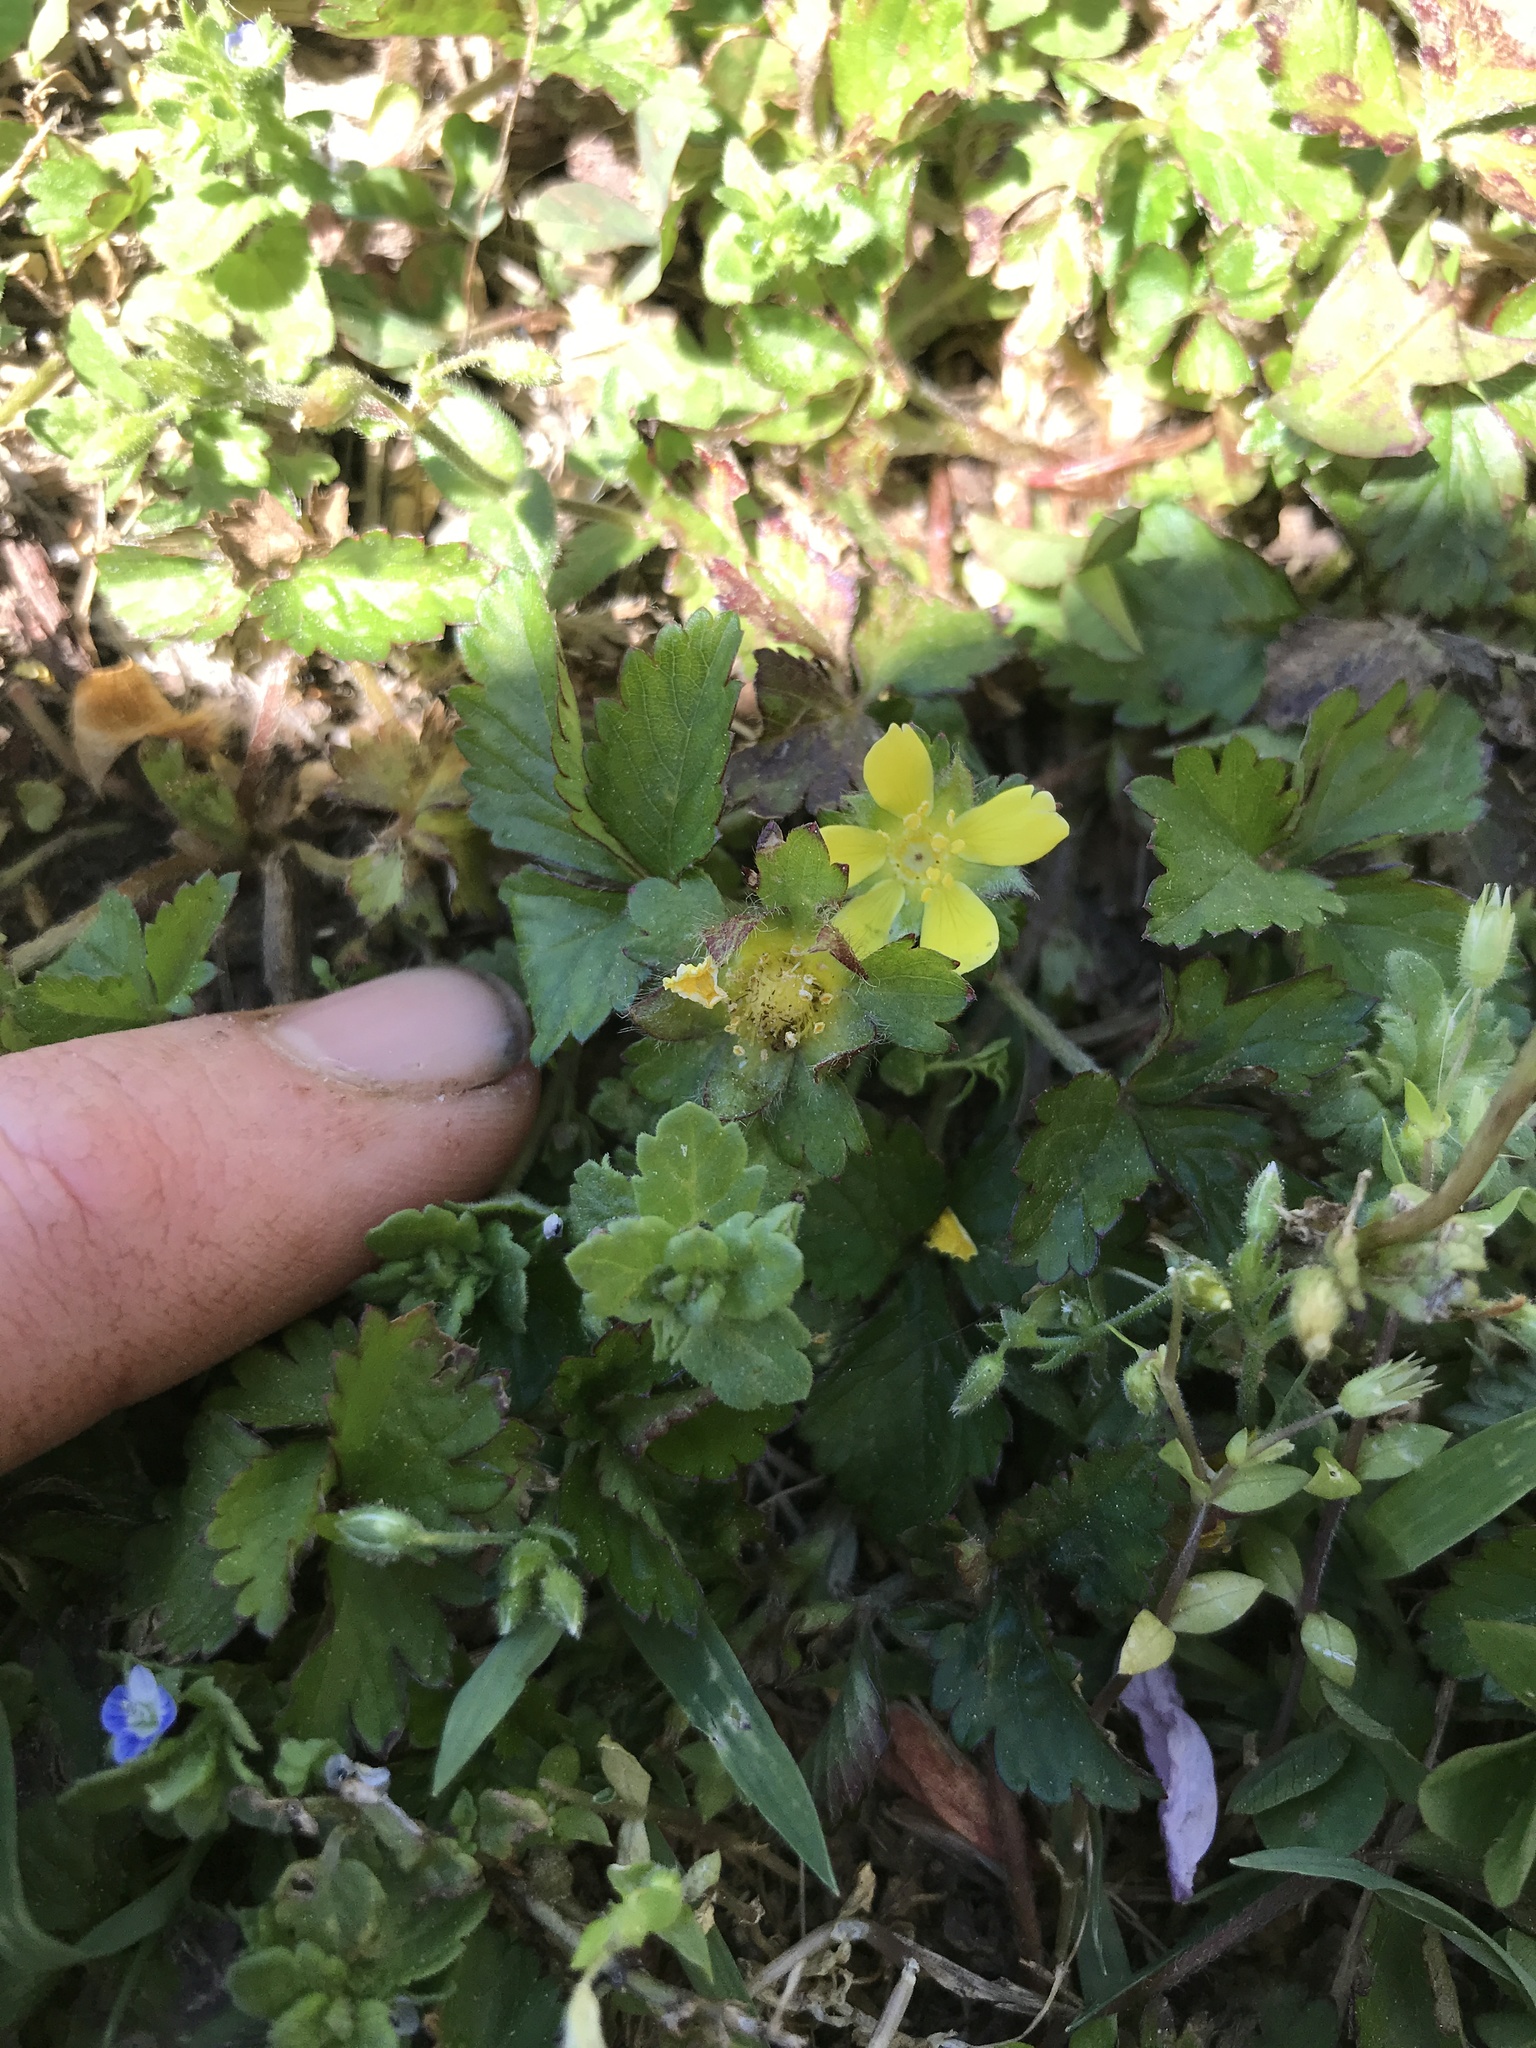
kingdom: Plantae
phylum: Tracheophyta
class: Magnoliopsida
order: Rosales
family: Rosaceae
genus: Potentilla
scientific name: Potentilla indica
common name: Yellow-flowered strawberry
